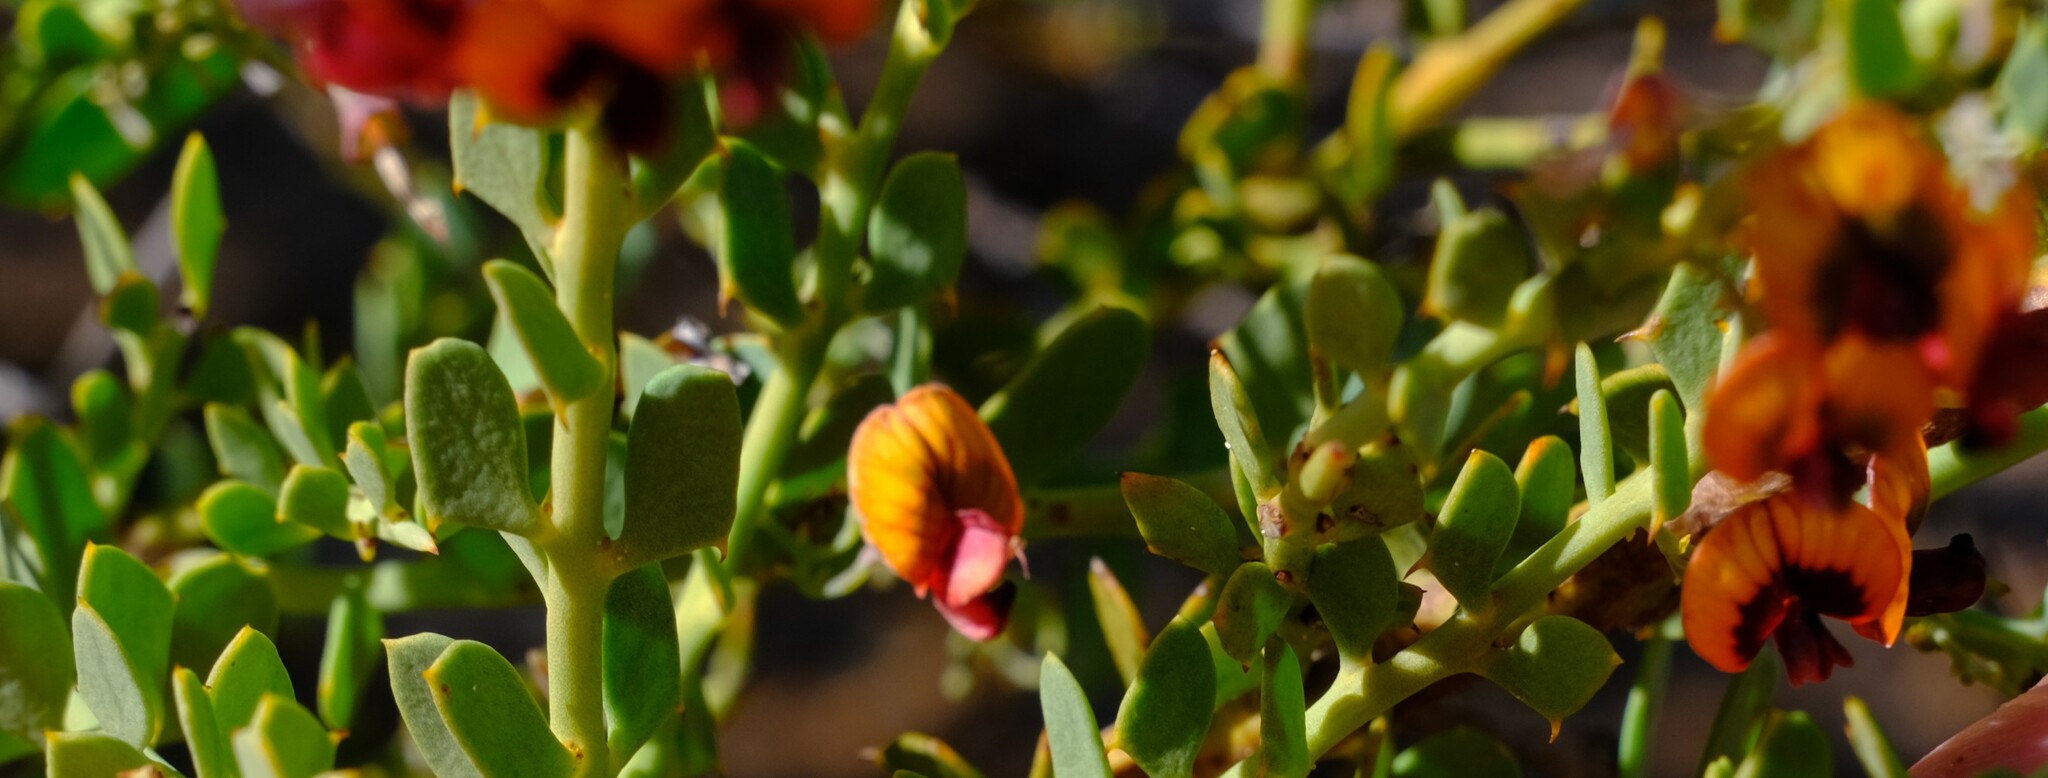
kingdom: Plantae
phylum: Tracheophyta
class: Magnoliopsida
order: Fabales
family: Fabaceae
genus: Daviesia
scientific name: Daviesia podophylla
